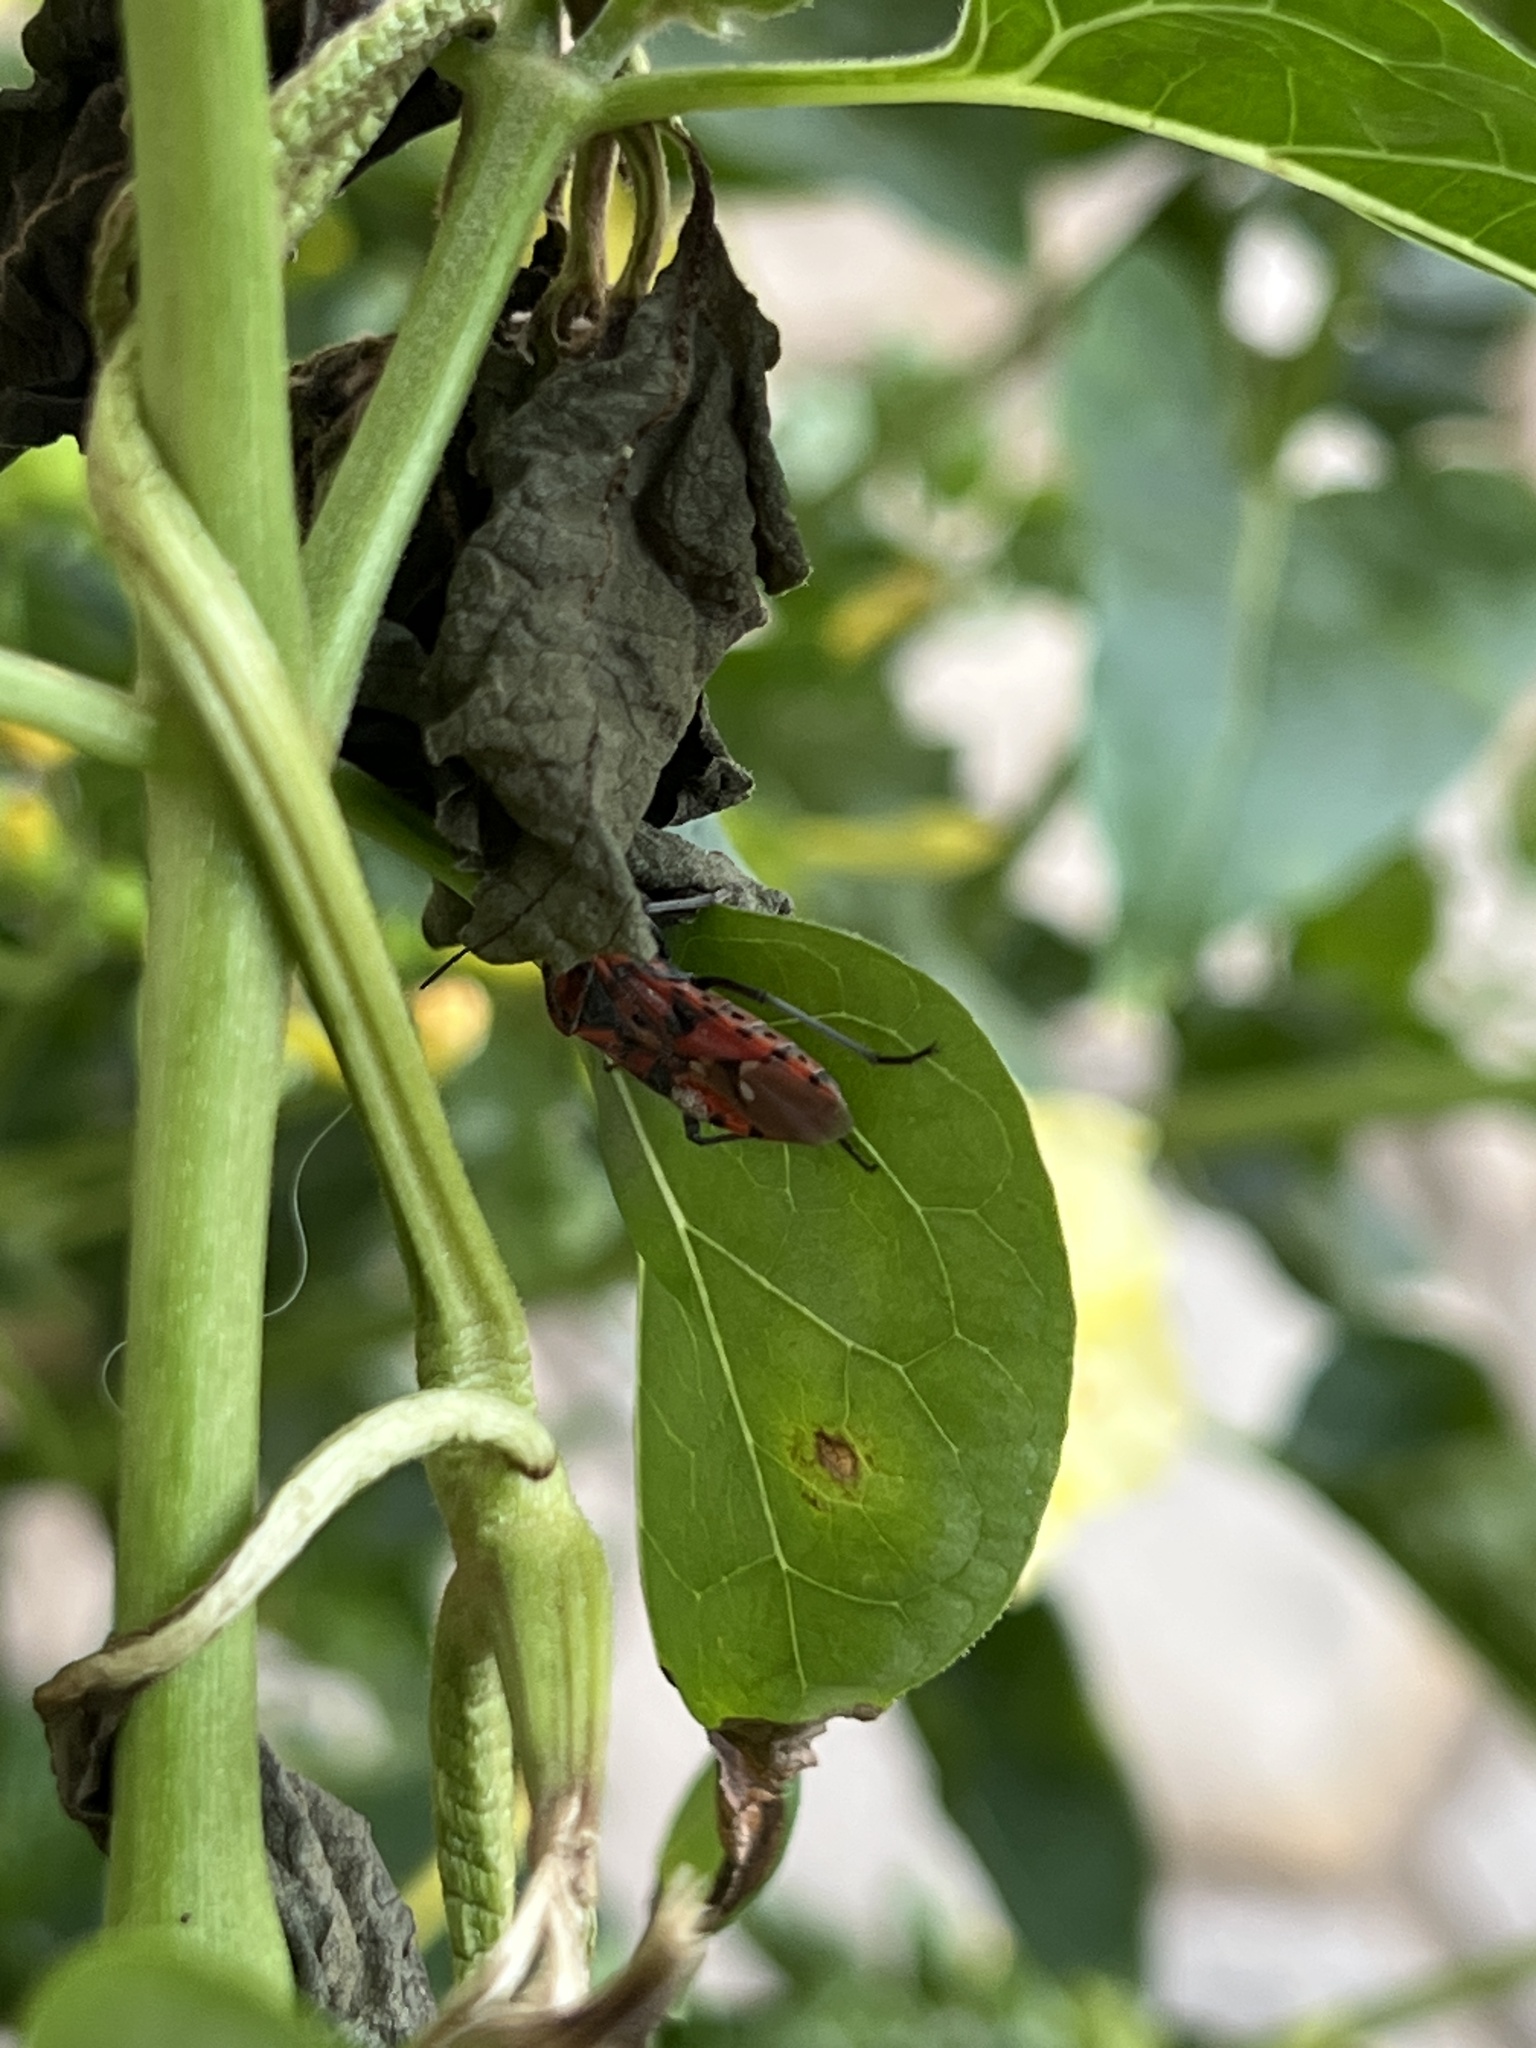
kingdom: Animalia
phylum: Arthropoda
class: Insecta
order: Hemiptera
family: Lygaeidae
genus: Spilostethus
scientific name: Spilostethus pandurus
